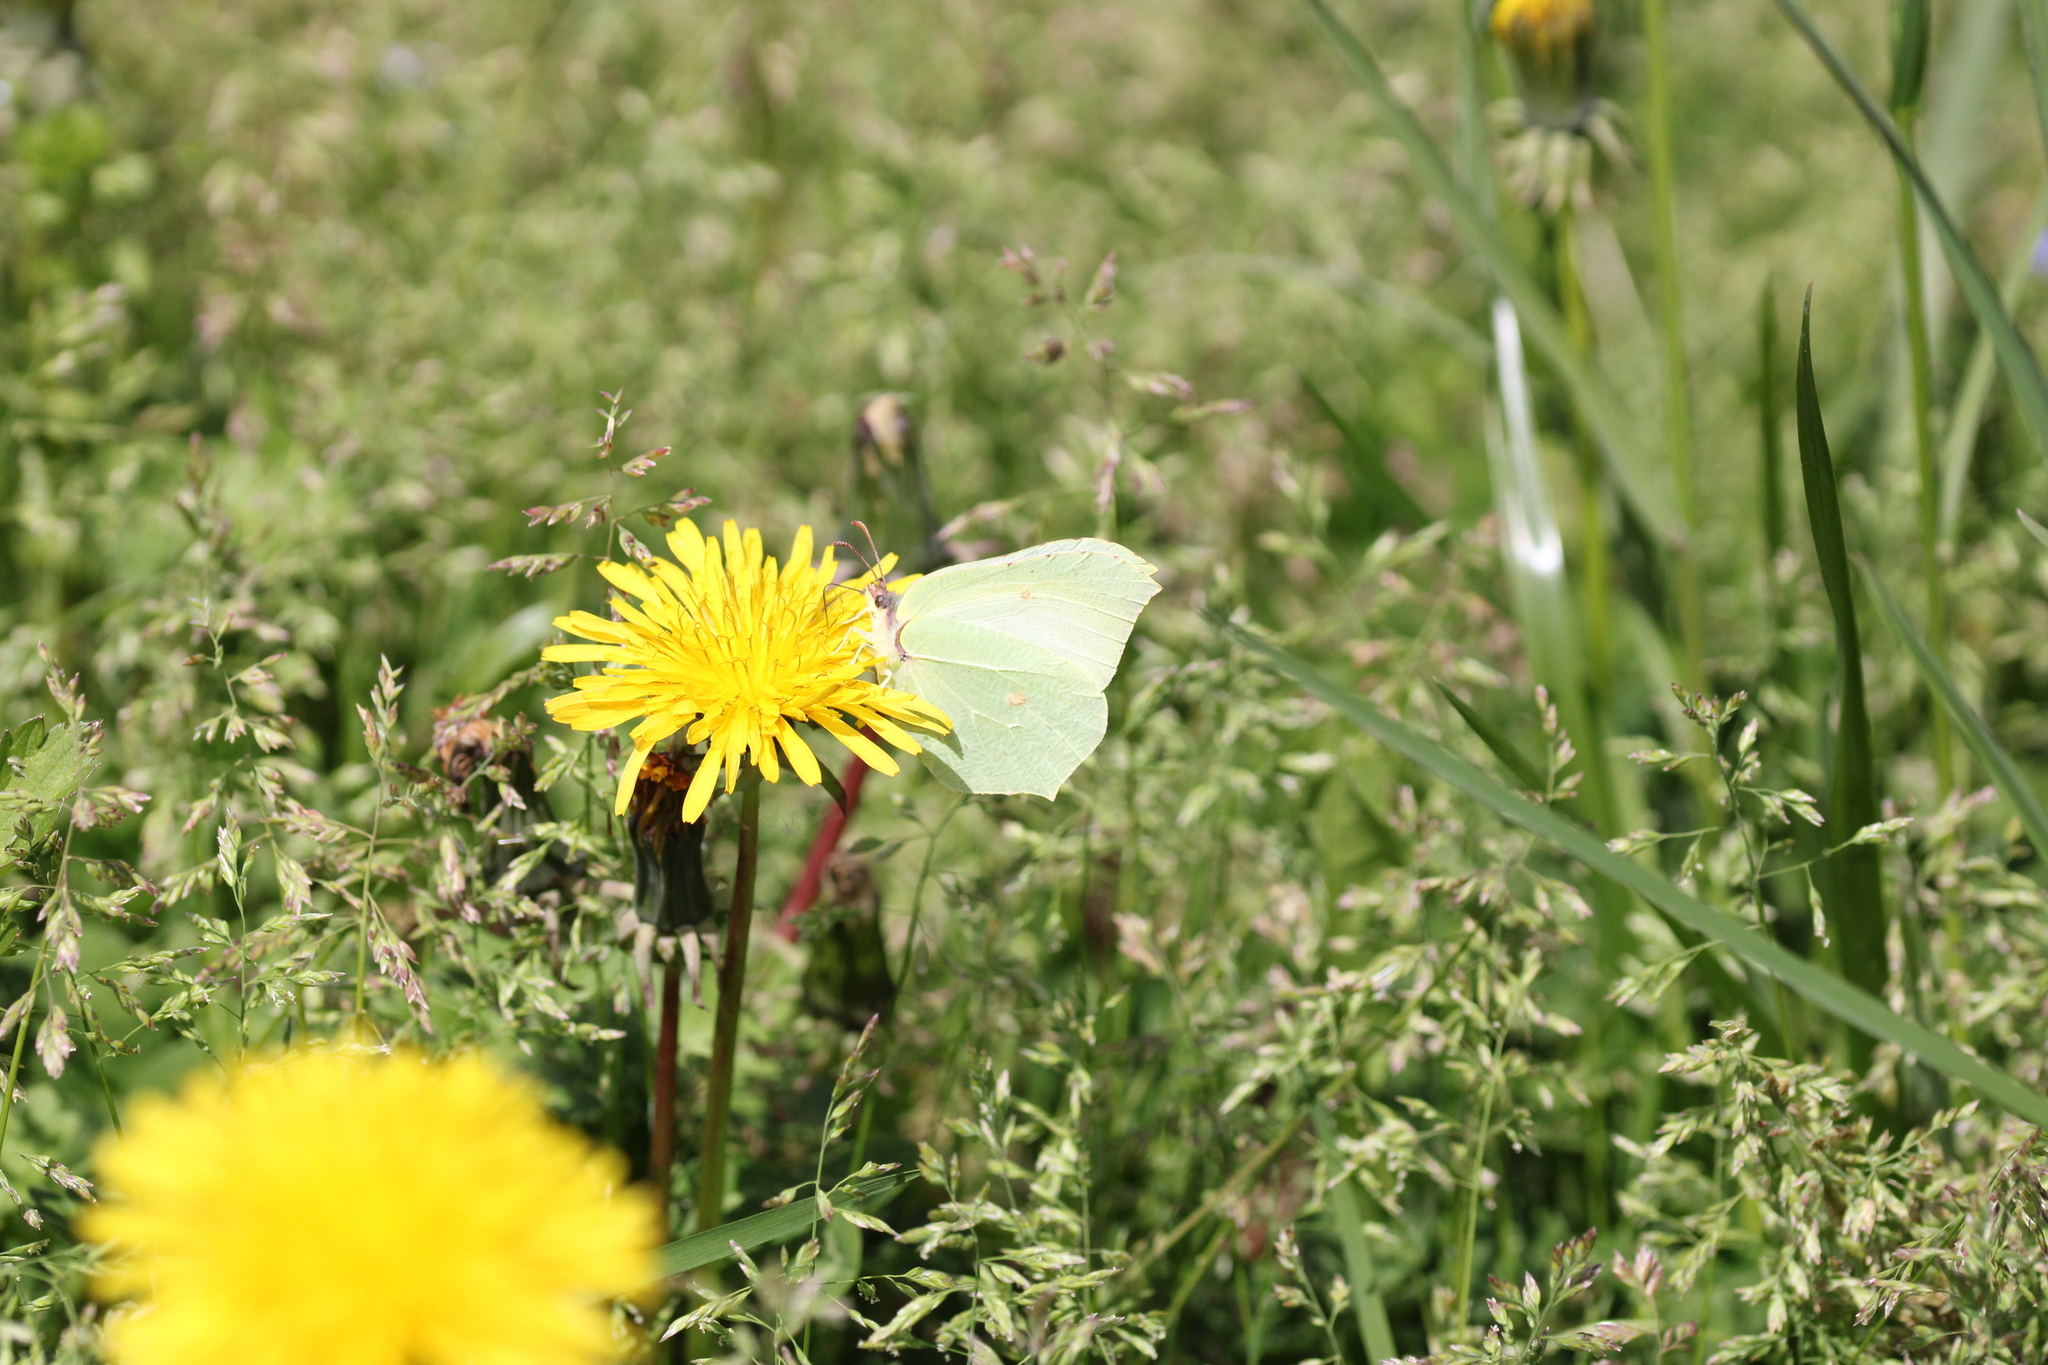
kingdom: Animalia
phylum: Arthropoda
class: Insecta
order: Lepidoptera
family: Pieridae
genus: Gonepteryx
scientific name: Gonepteryx rhamni
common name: Brimstone
